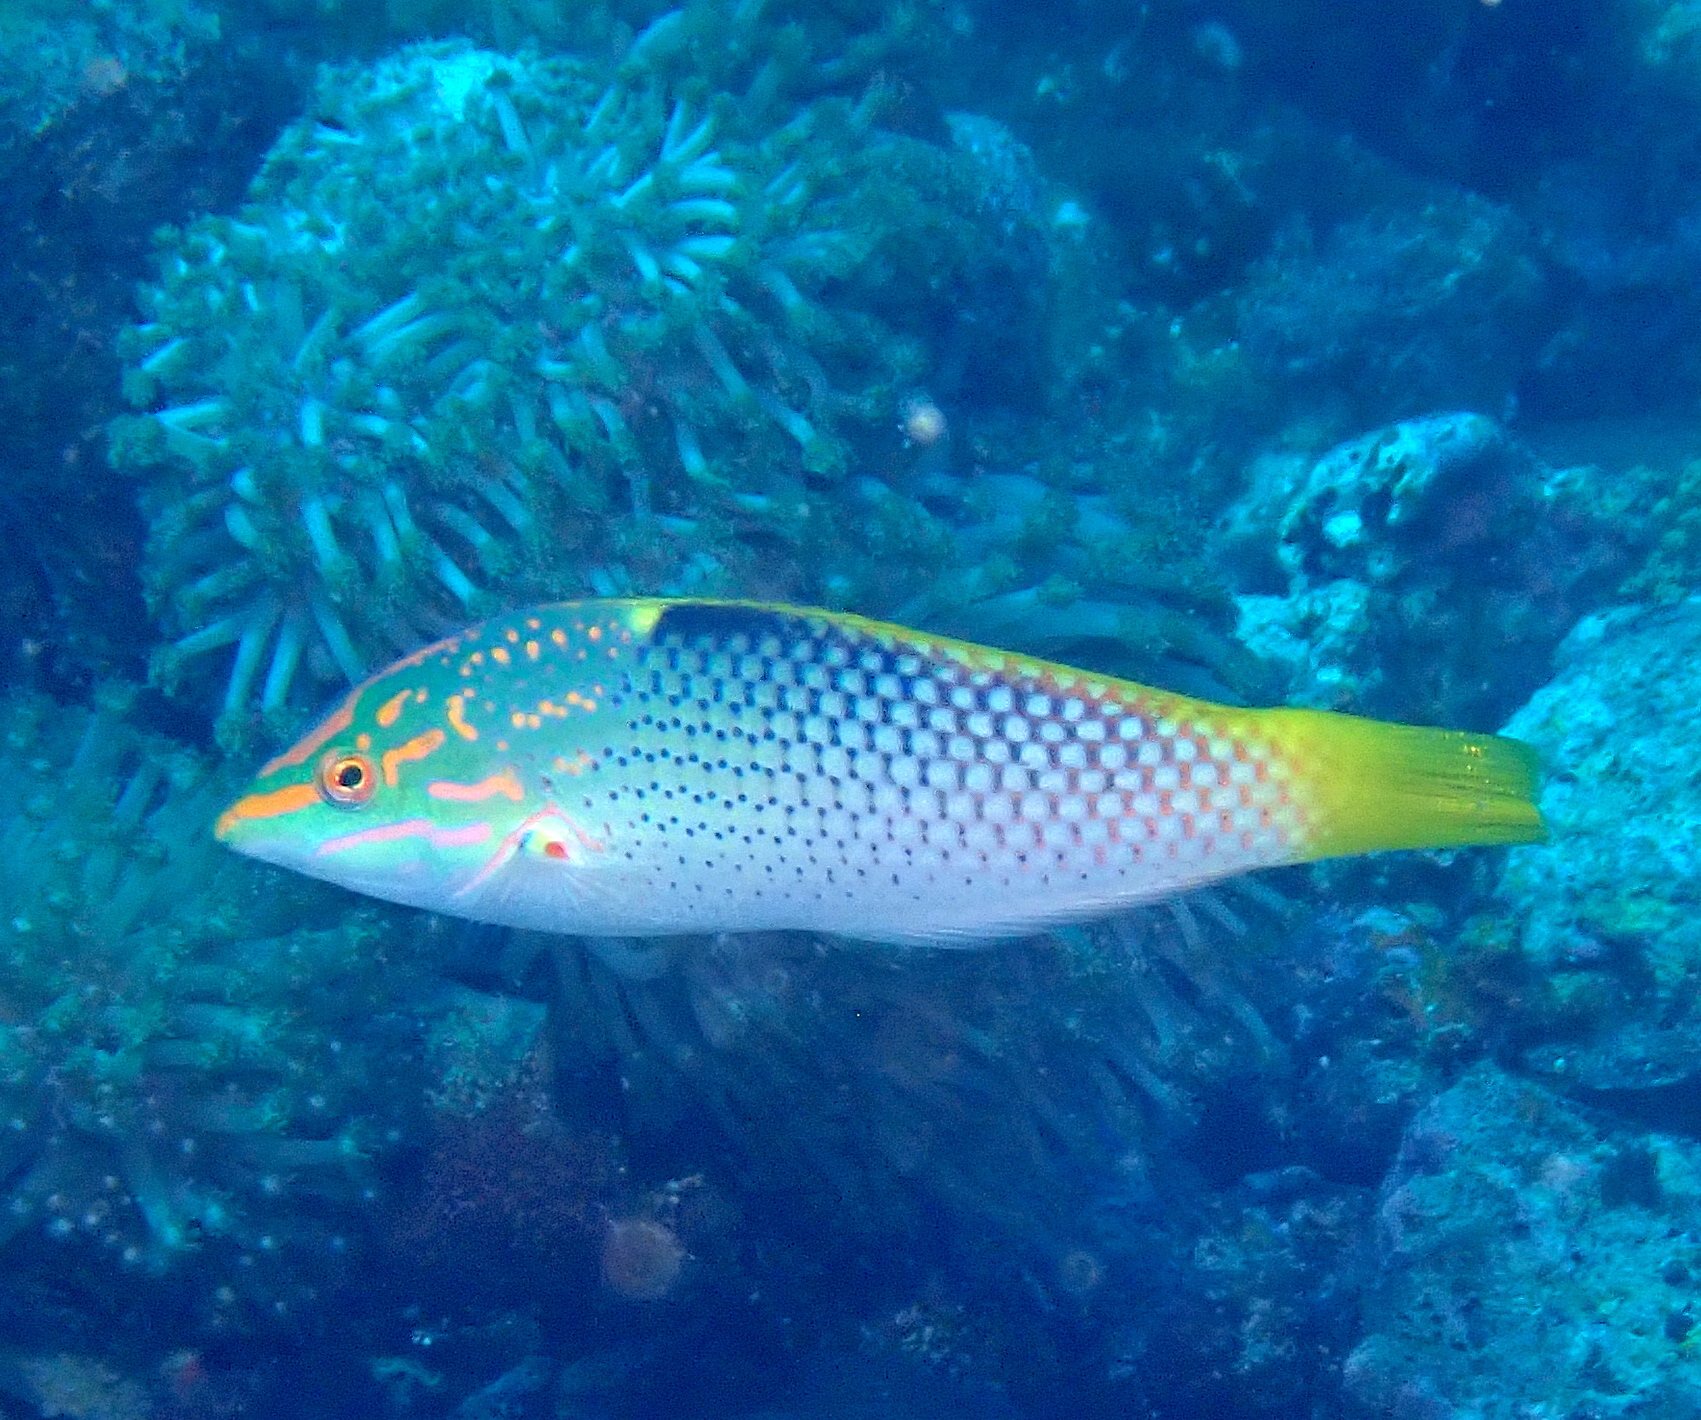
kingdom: Animalia
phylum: Chordata
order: Perciformes
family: Labridae
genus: Halichoeres
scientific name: Halichoeres hortulanus
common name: Checkerboard wrasse
